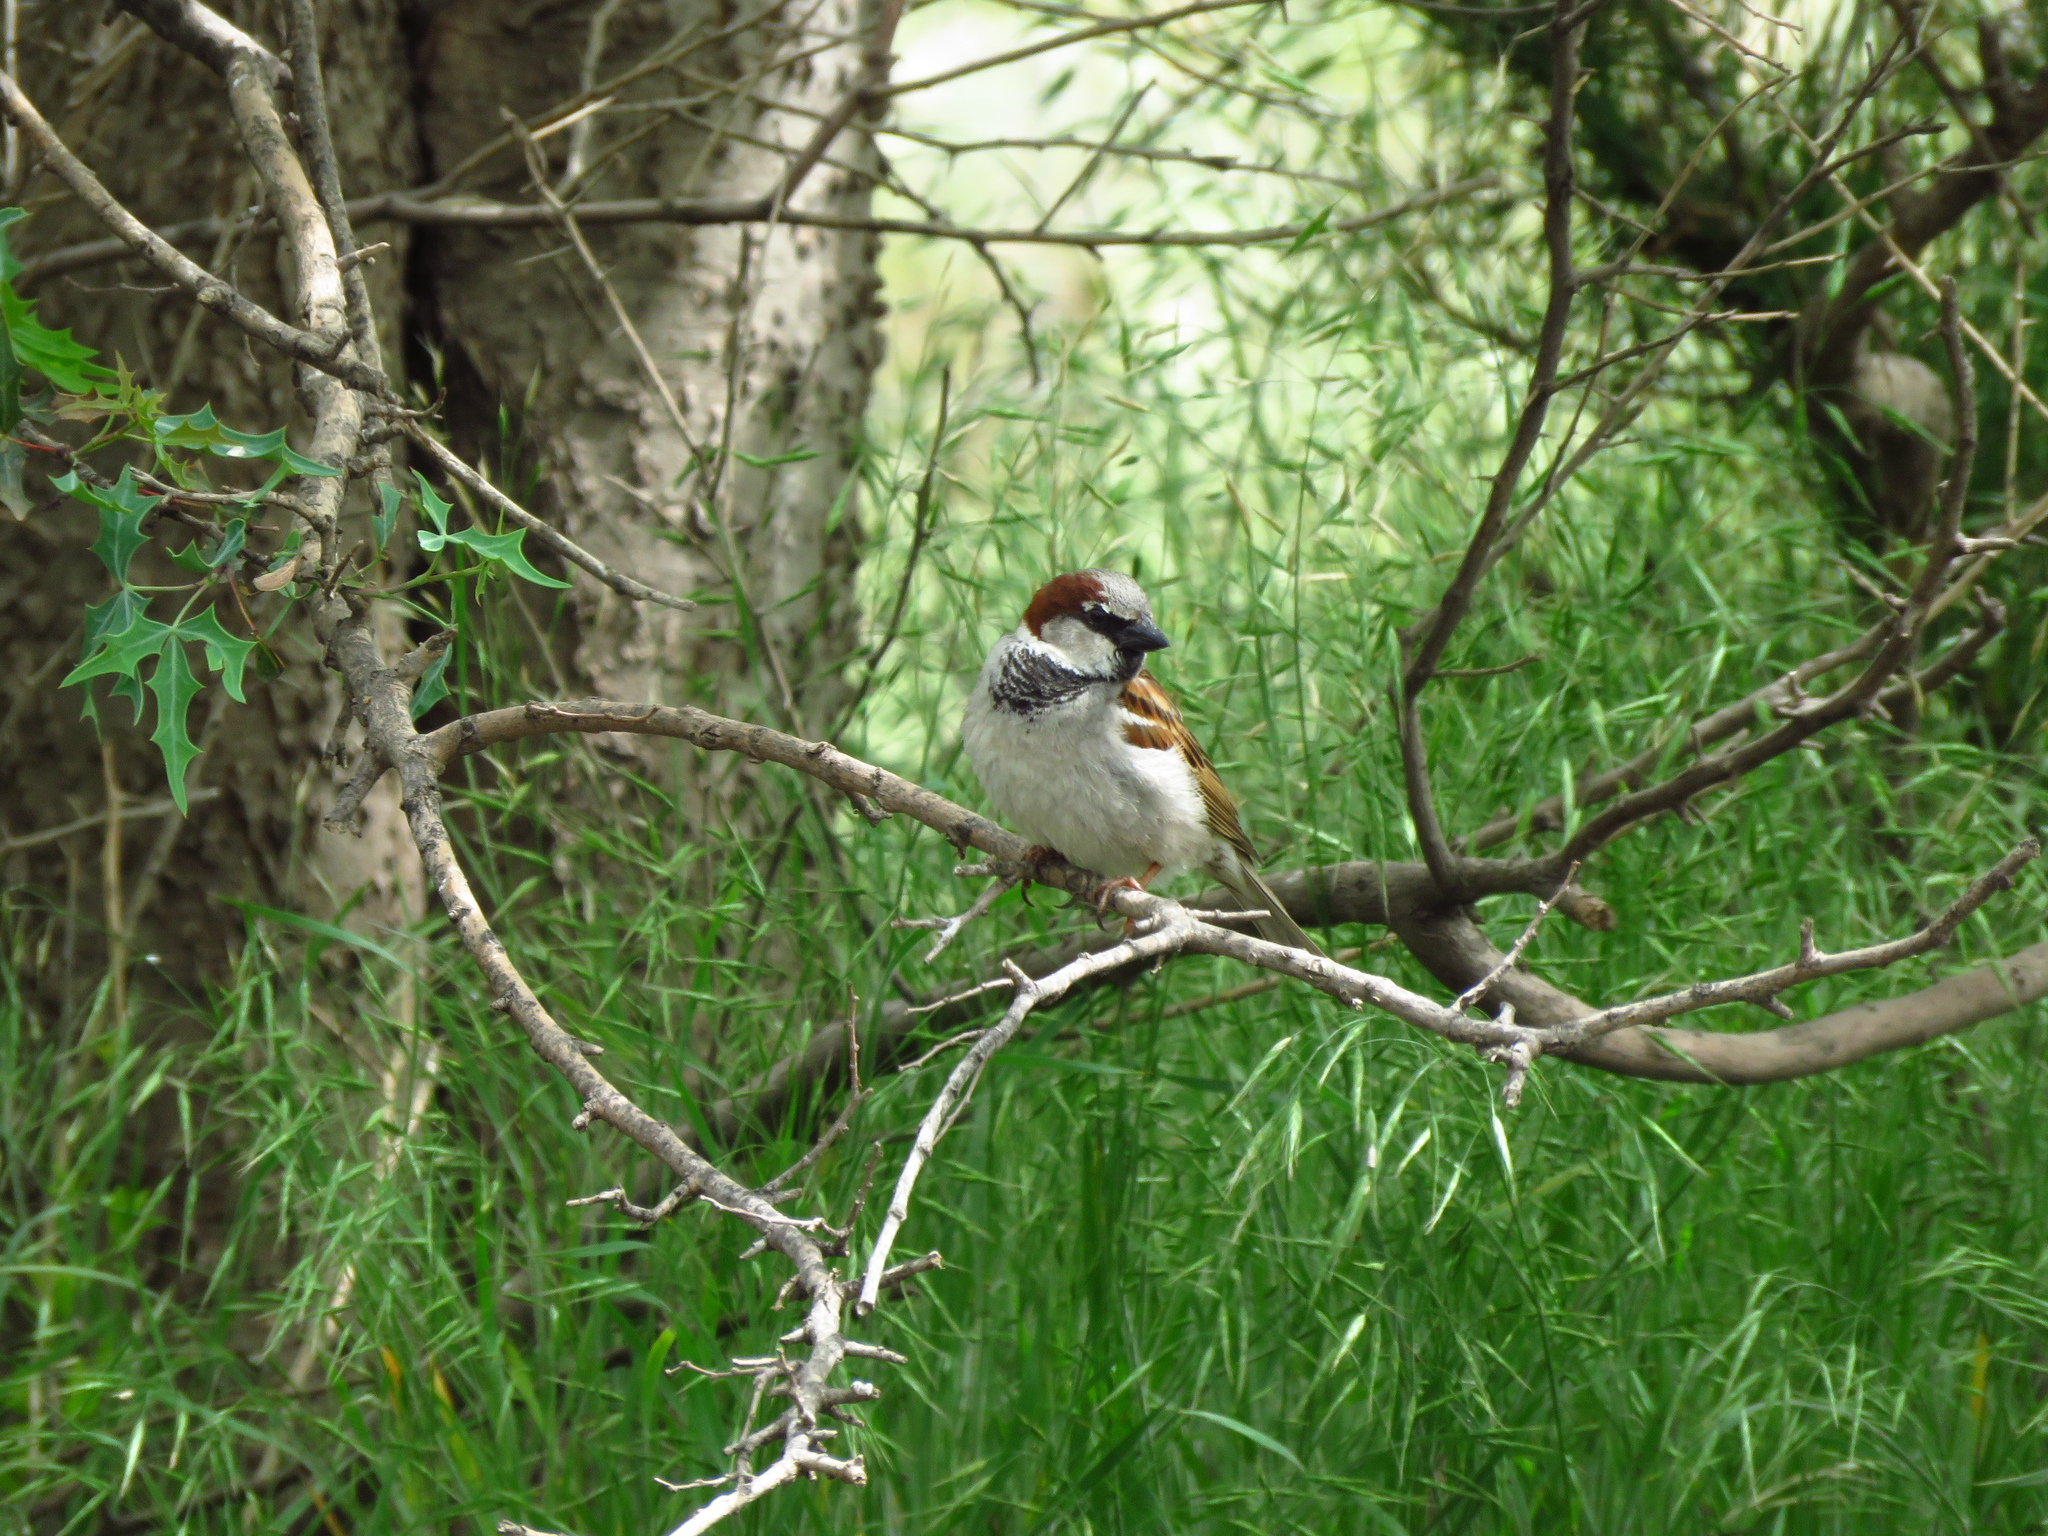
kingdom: Animalia
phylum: Chordata
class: Aves
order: Passeriformes
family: Passeridae
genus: Passer
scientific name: Passer domesticus
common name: House sparrow
